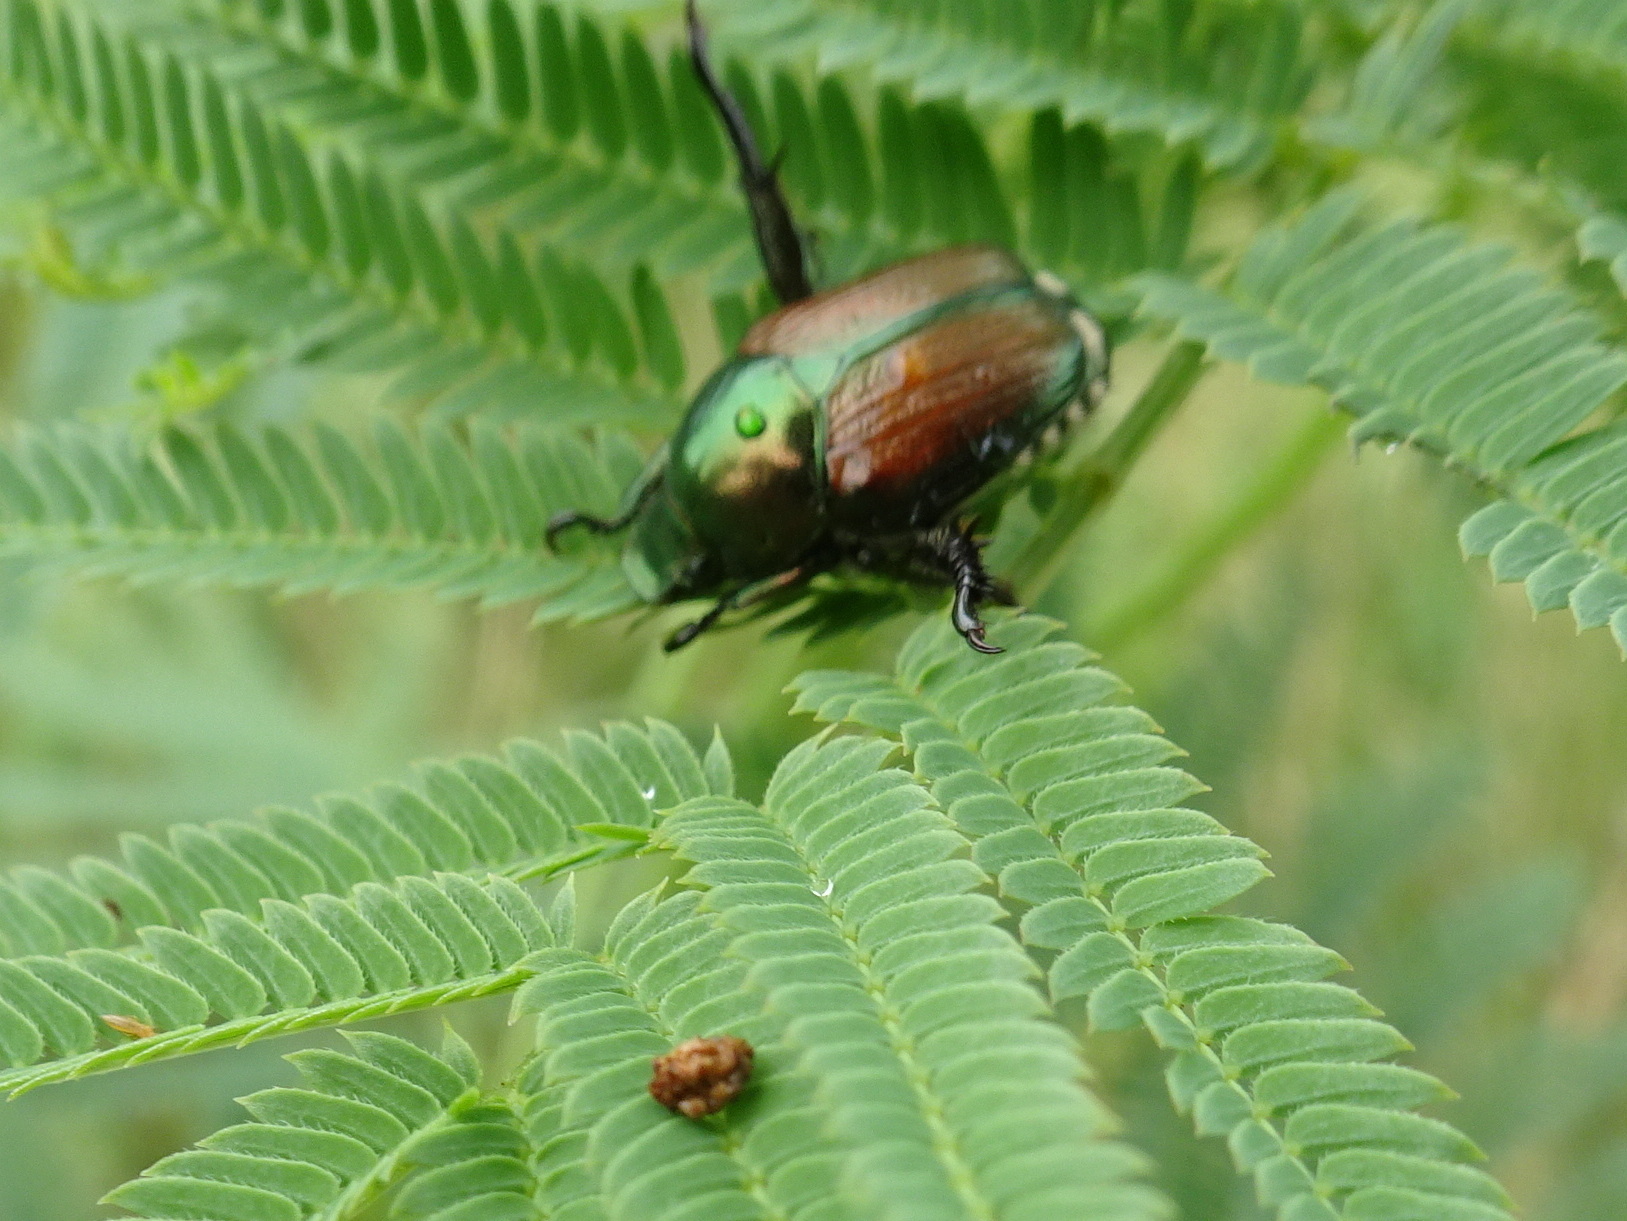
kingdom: Animalia
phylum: Arthropoda
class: Insecta
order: Coleoptera
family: Scarabaeidae
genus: Popillia
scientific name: Popillia japonica
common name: Japanese beetle
